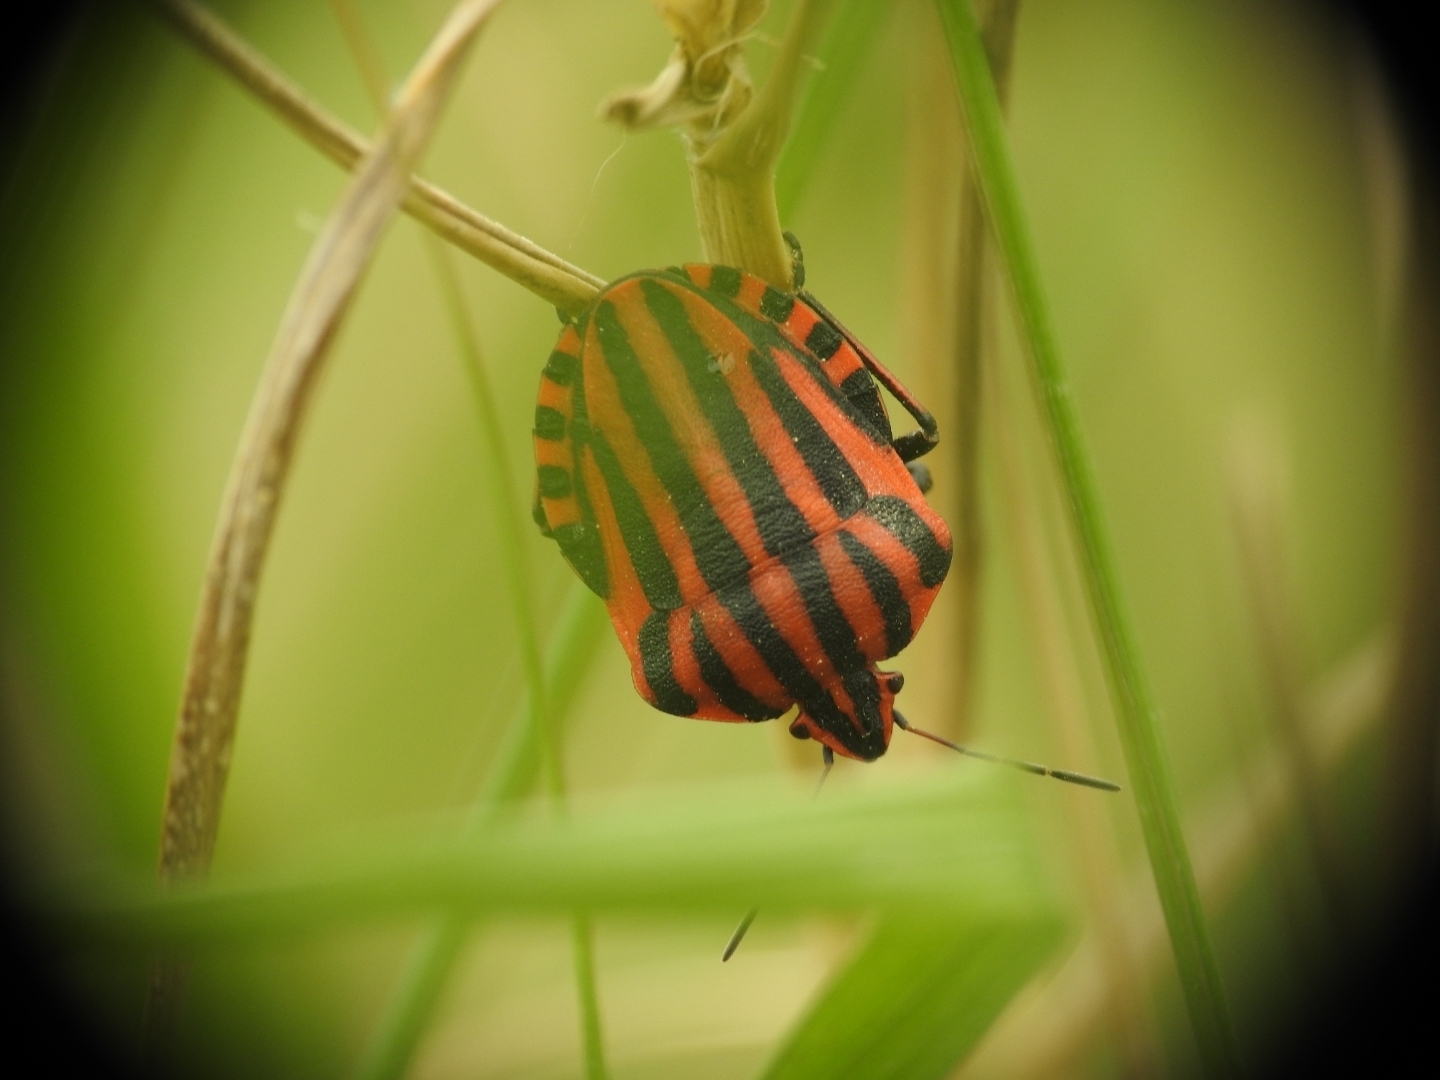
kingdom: Animalia
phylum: Arthropoda
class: Insecta
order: Hemiptera
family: Pentatomidae
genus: Graphosoma
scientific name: Graphosoma italicum
